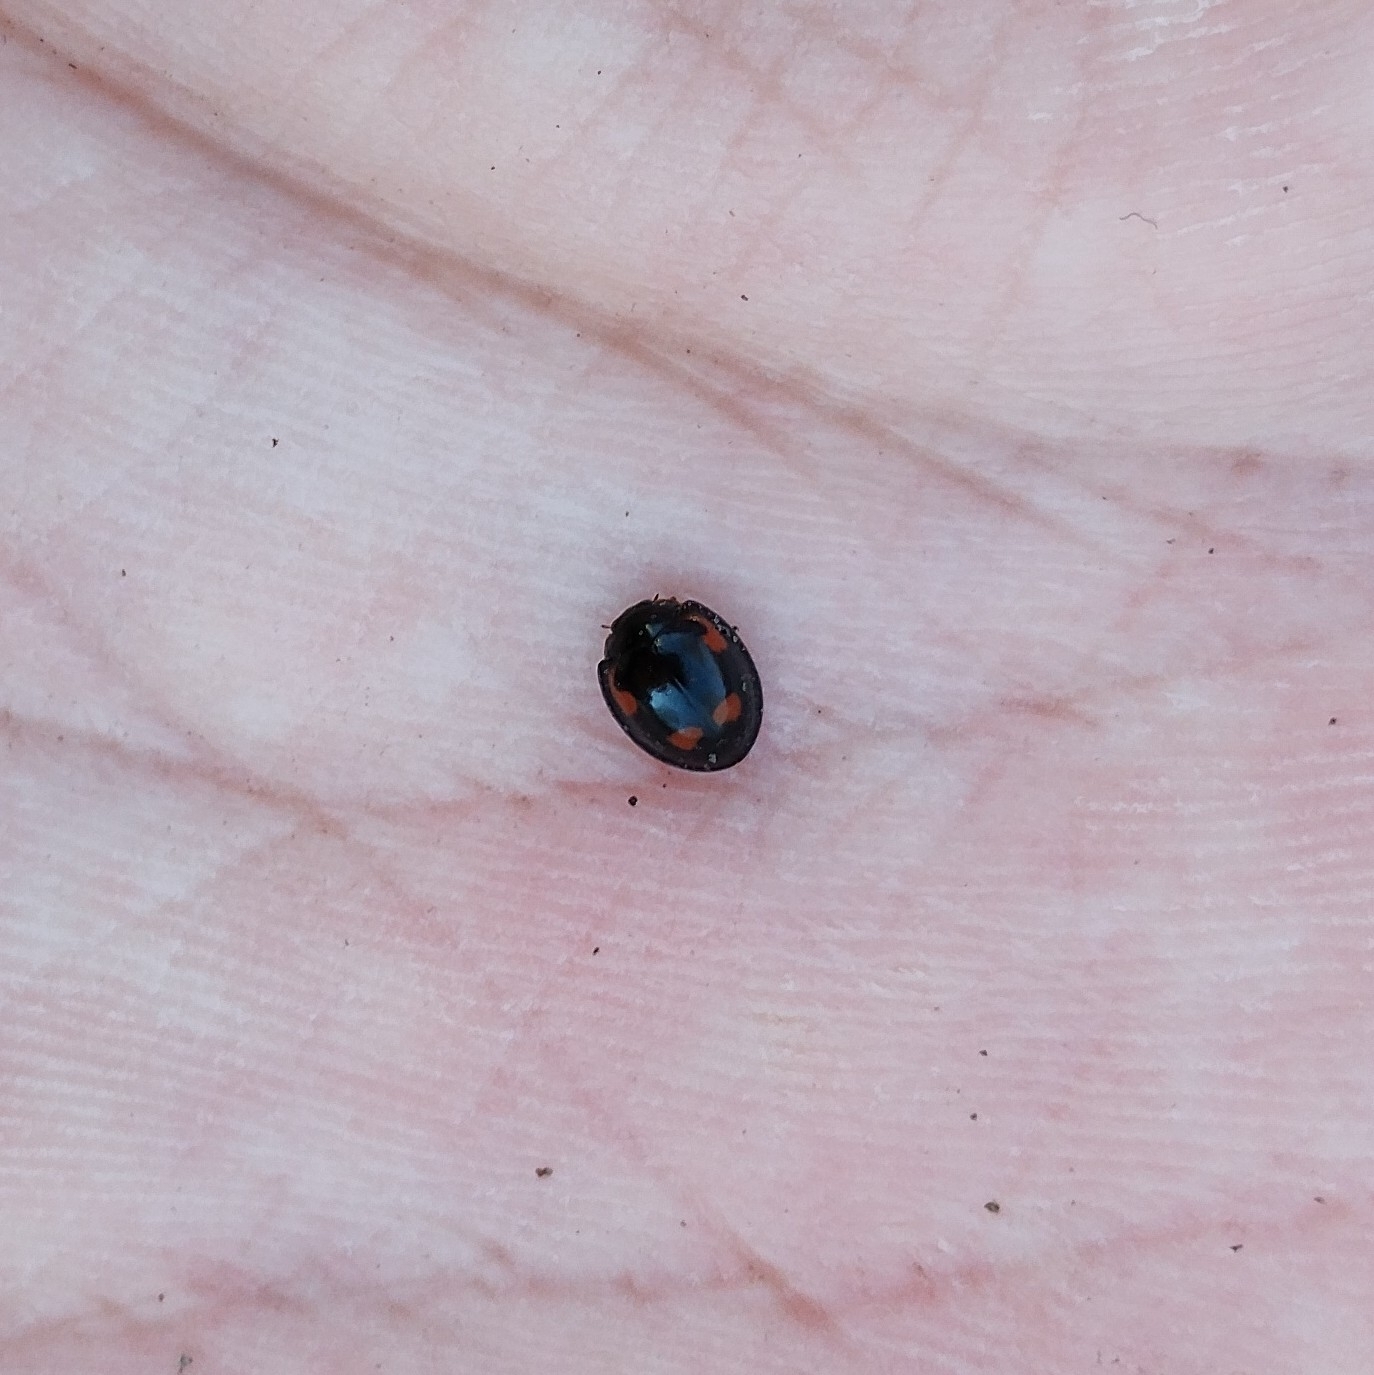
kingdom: Animalia
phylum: Arthropoda
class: Insecta
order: Coleoptera
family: Coccinellidae
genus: Brumus
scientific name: Brumus quadripustulatus
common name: Ladybird beetle
